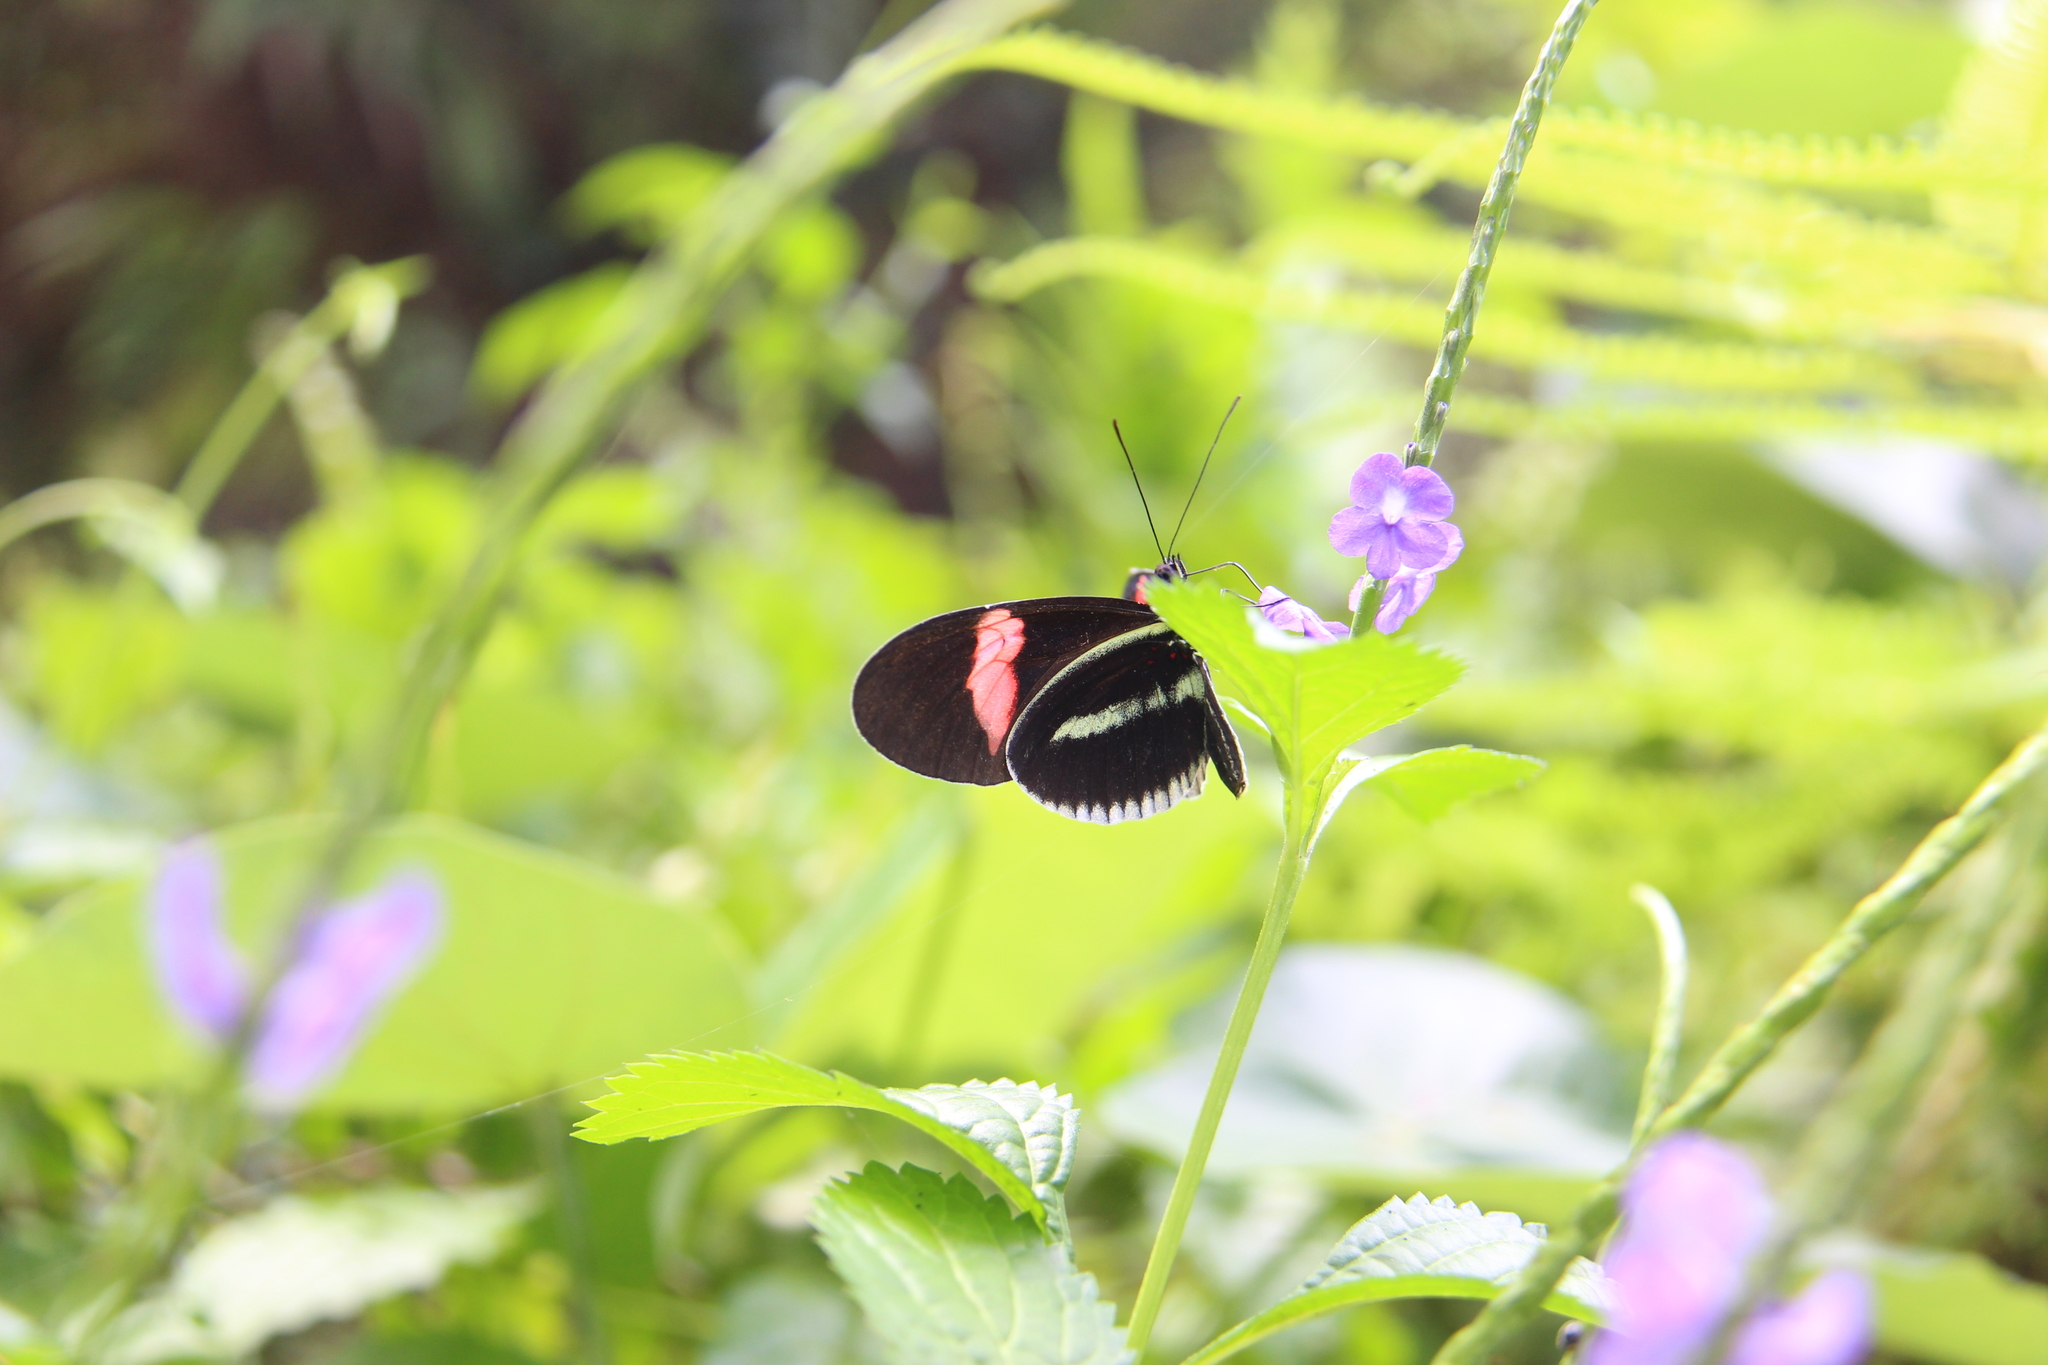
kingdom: Animalia
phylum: Arthropoda
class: Insecta
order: Lepidoptera
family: Nymphalidae
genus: Heliconius
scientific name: Heliconius erato
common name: Common patch longwing
